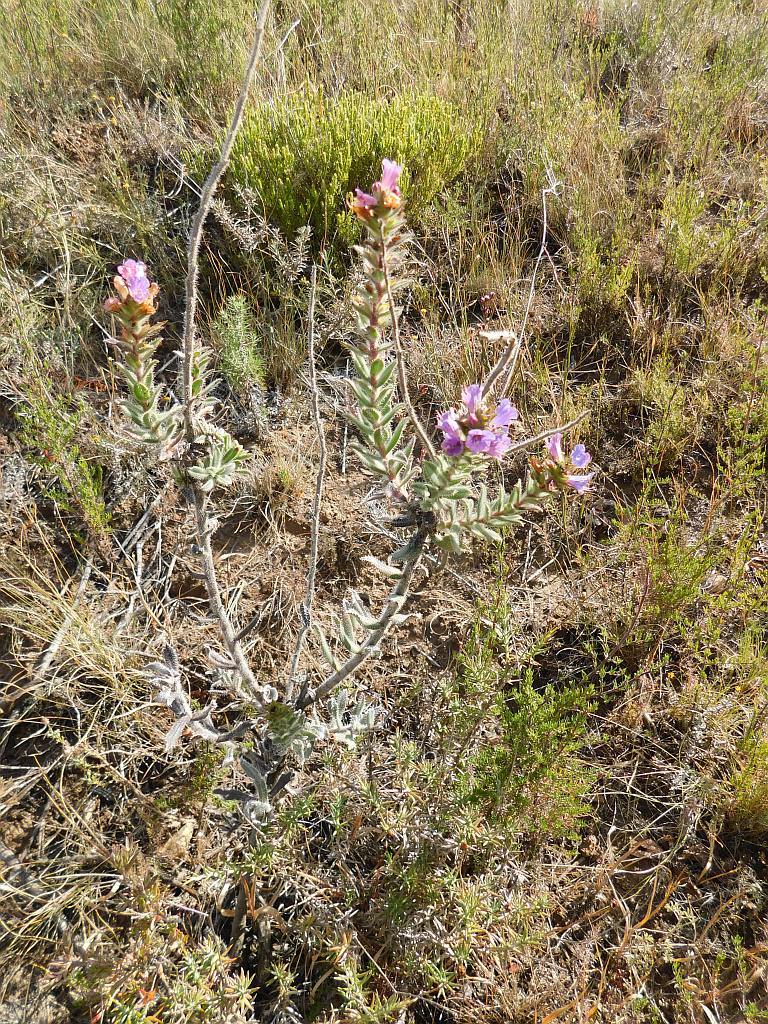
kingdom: Plantae
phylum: Tracheophyta
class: Magnoliopsida
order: Boraginales
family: Boraginaceae
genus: Lobostemon
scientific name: Lobostemon argenteus
